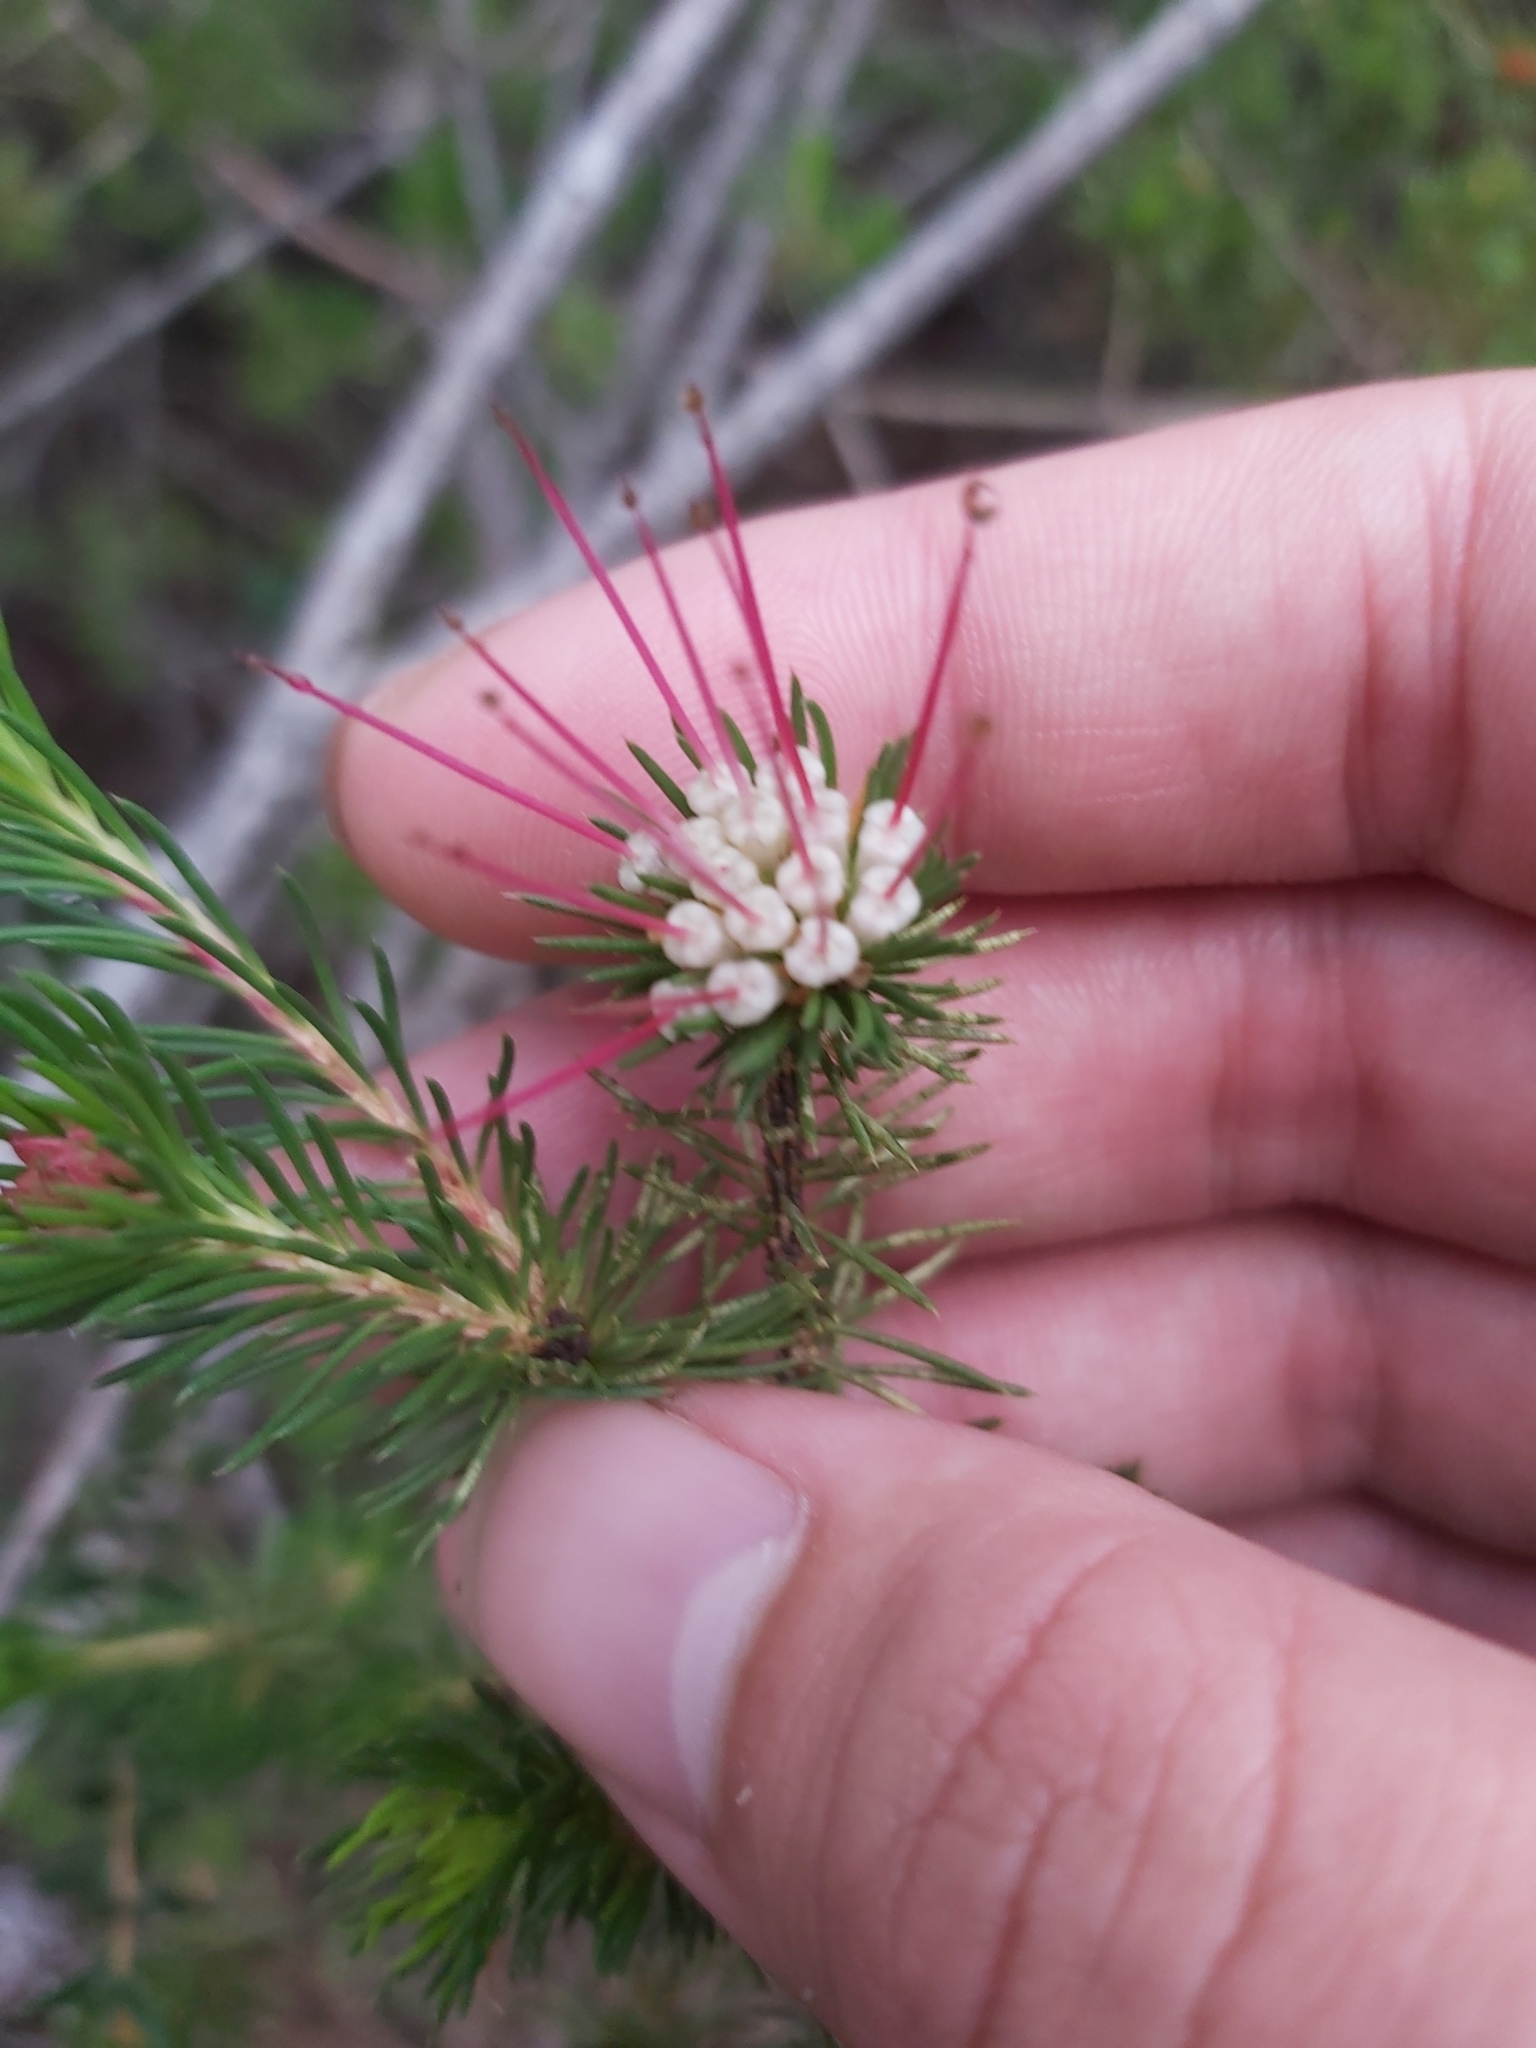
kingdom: Plantae
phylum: Tracheophyta
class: Magnoliopsida
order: Myrtales
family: Myrtaceae
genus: Darwinia
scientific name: Darwinia fascicularis
